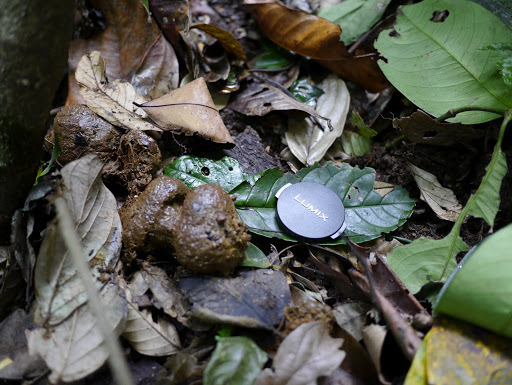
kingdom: Animalia
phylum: Chordata
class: Mammalia
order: Primates
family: Hominidae
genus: Gorilla
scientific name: Gorilla gorilla
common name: Western gorilla
